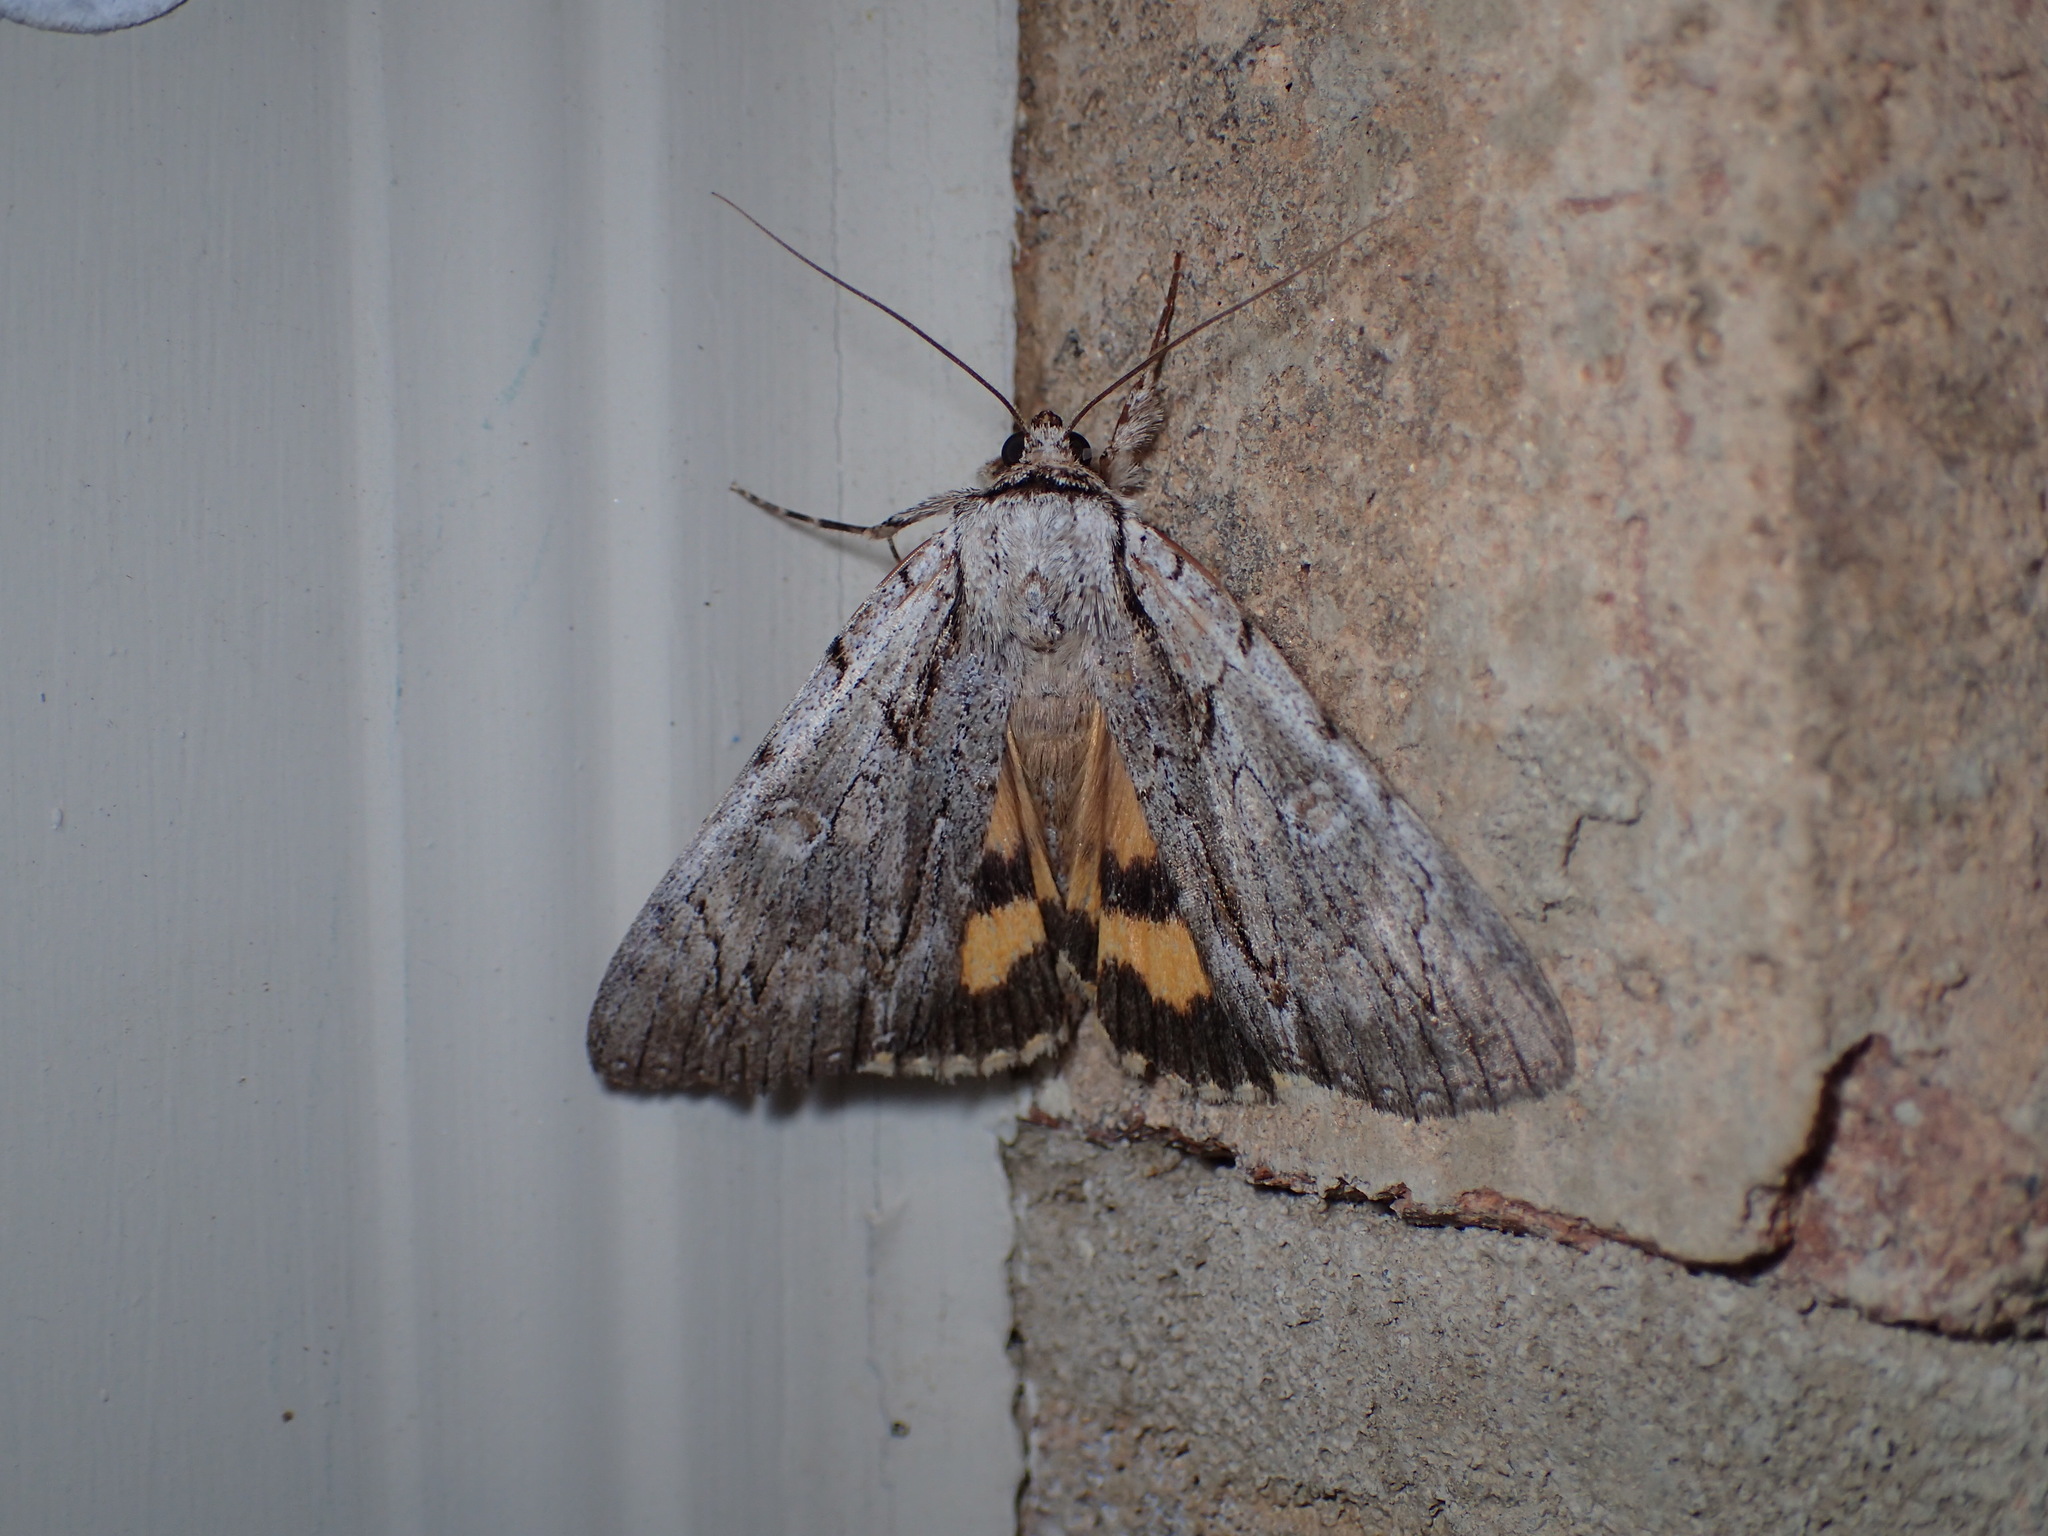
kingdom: Animalia
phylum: Arthropoda
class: Insecta
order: Lepidoptera
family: Erebidae
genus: Catocala
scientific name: Catocala clintonii
